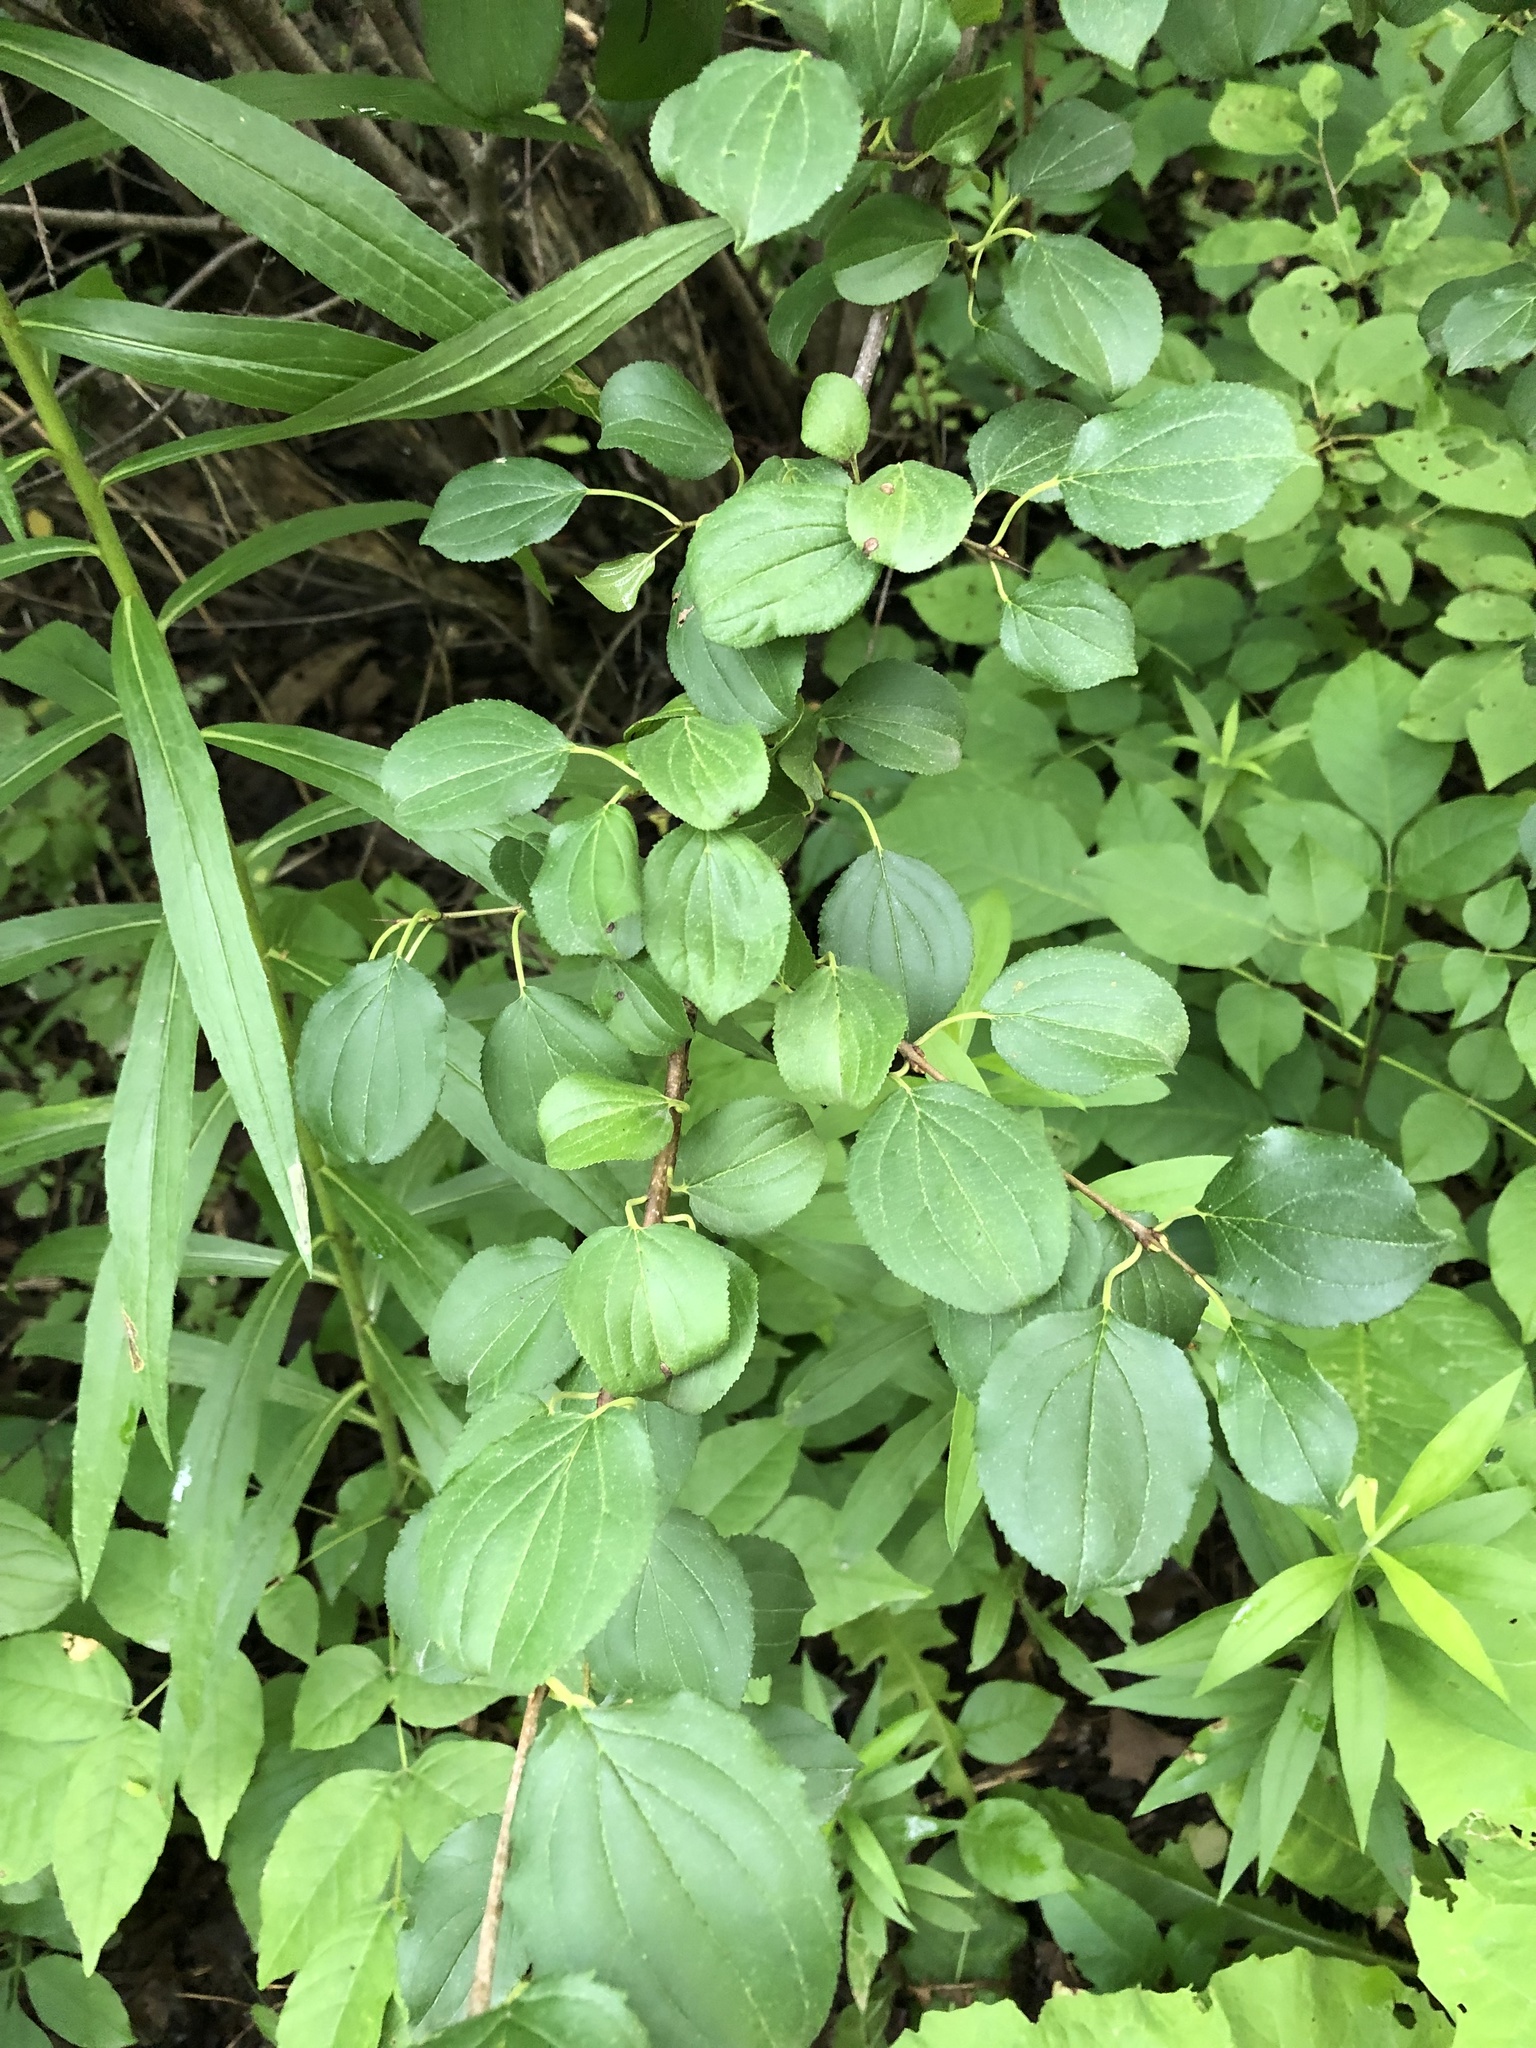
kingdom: Plantae
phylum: Tracheophyta
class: Magnoliopsida
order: Rosales
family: Rhamnaceae
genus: Rhamnus
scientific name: Rhamnus cathartica
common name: Common buckthorn
